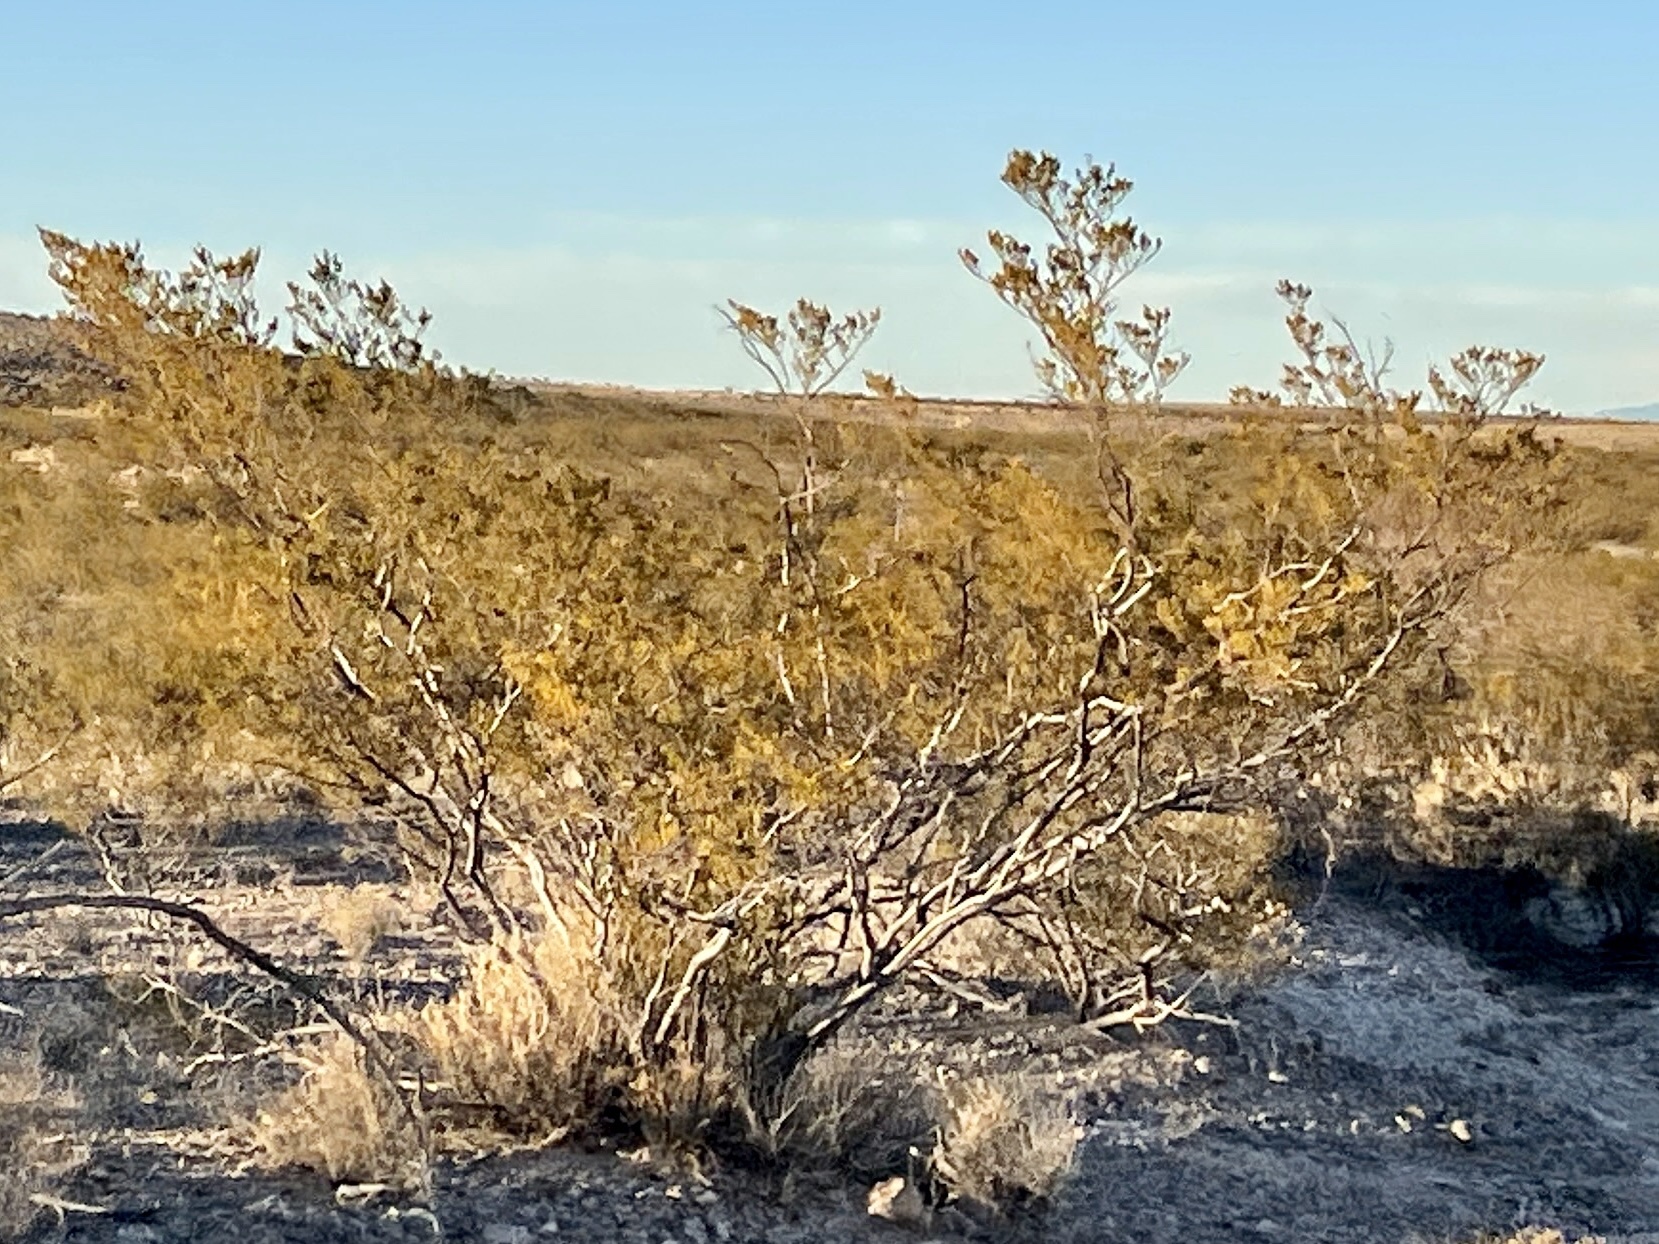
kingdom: Plantae
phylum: Tracheophyta
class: Magnoliopsida
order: Zygophyllales
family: Zygophyllaceae
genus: Larrea
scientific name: Larrea tridentata
